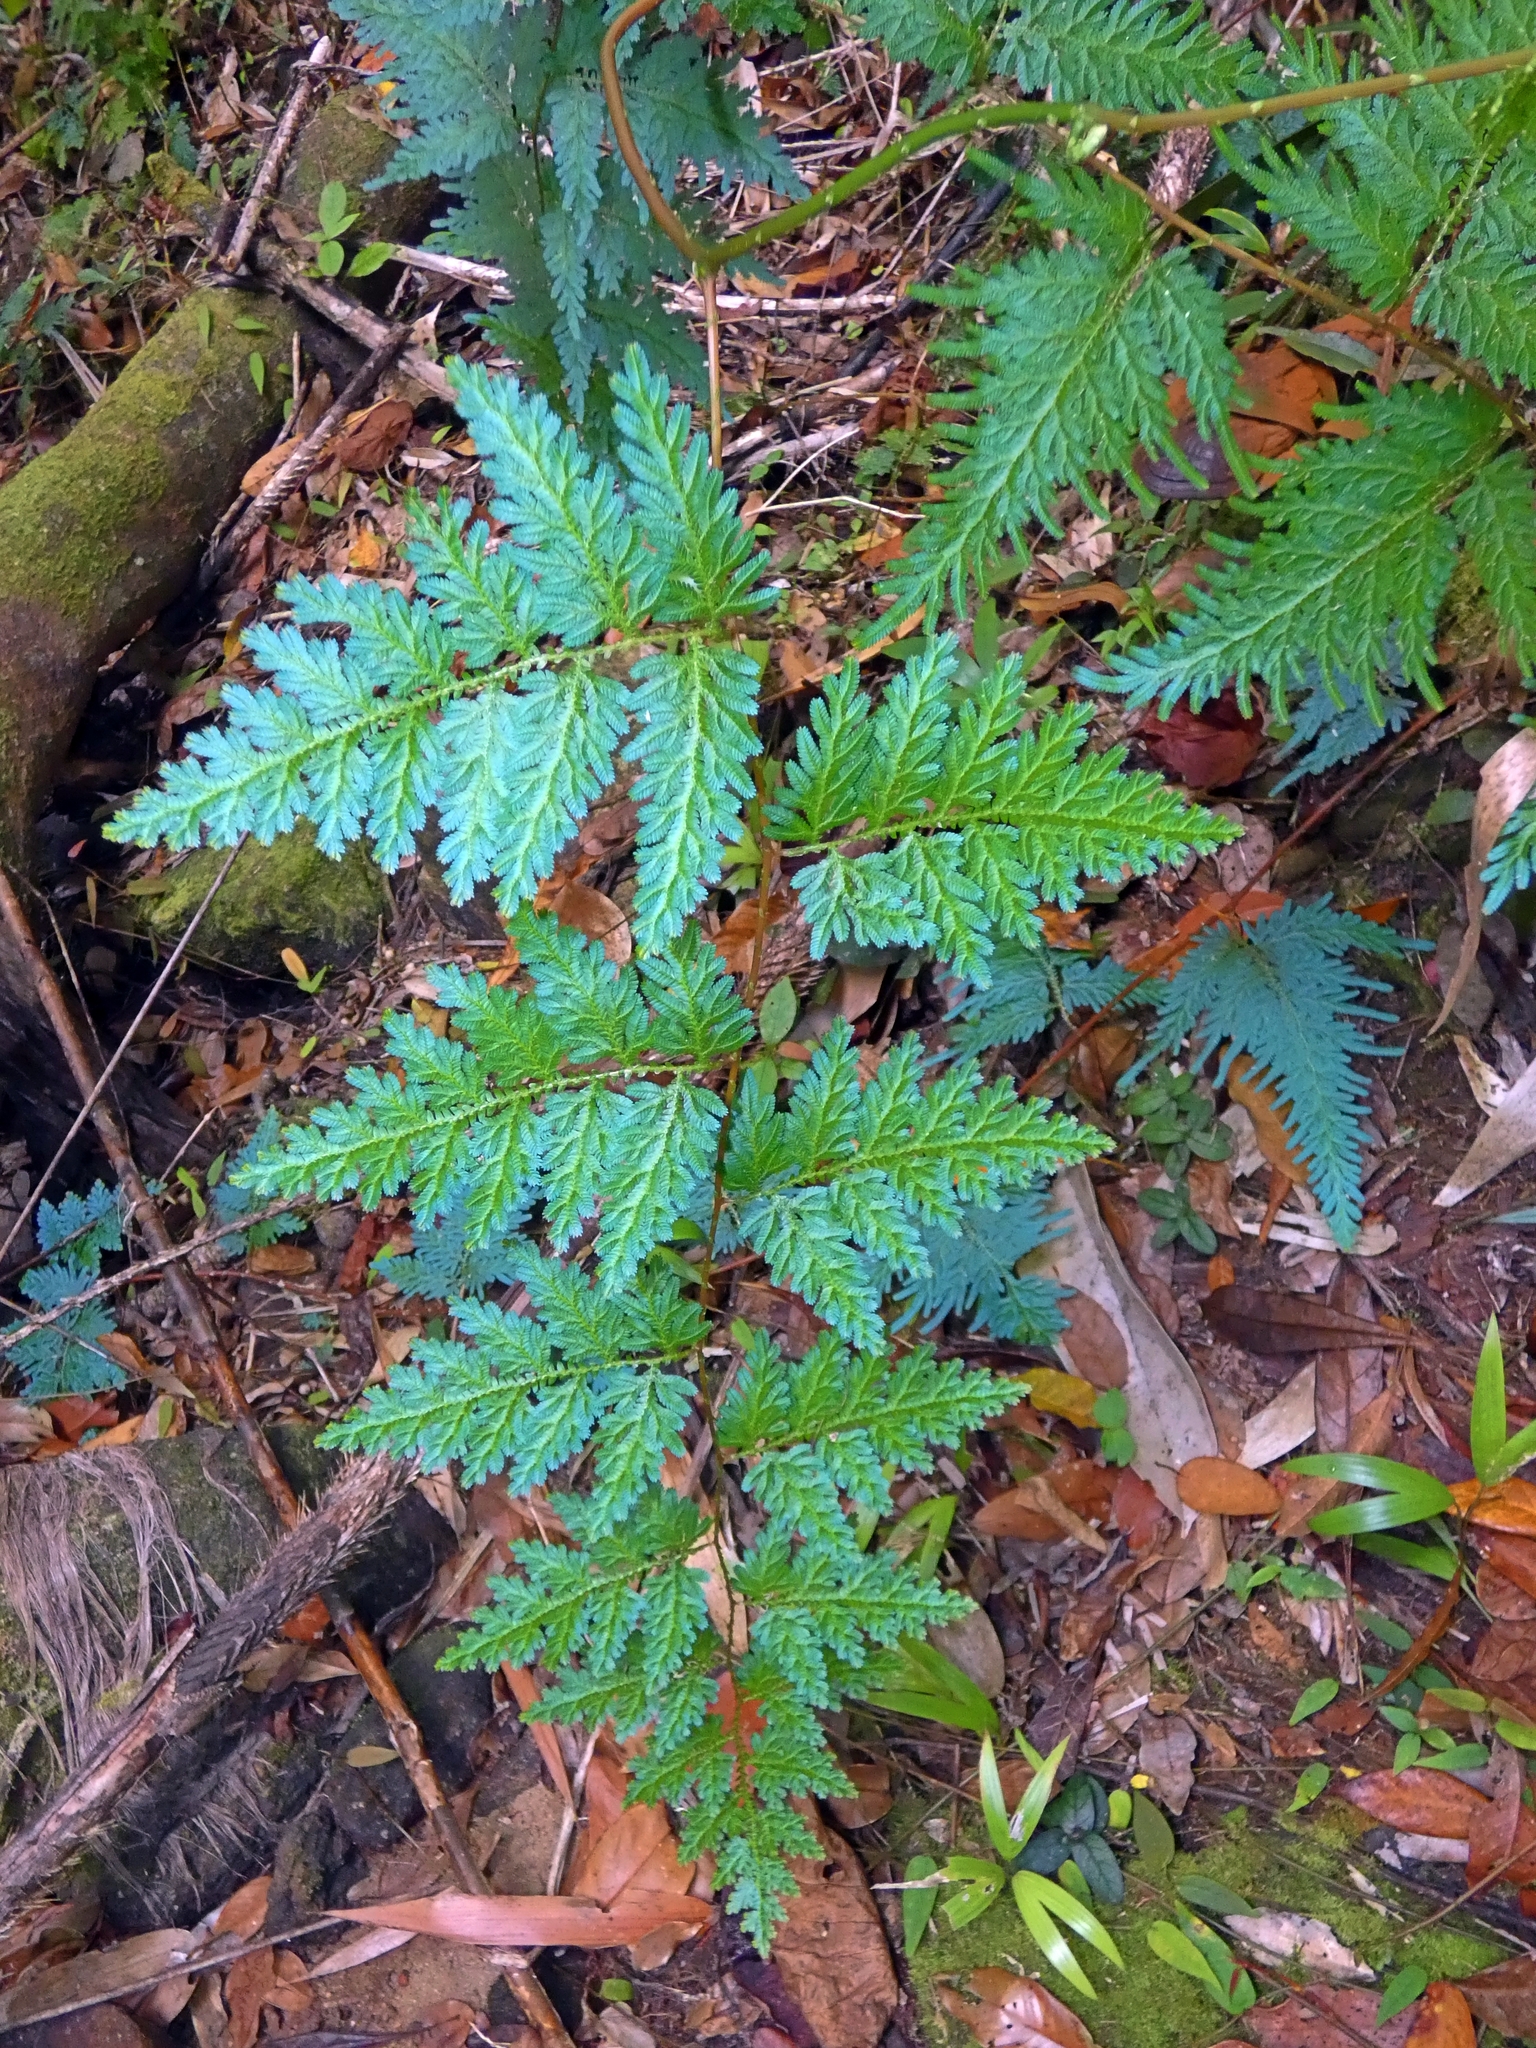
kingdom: Plantae
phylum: Tracheophyta
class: Lycopodiopsida
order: Selaginellales
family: Selaginellaceae
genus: Selaginella
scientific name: Selaginella willdenowii
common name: Willdenow's spikemoss
